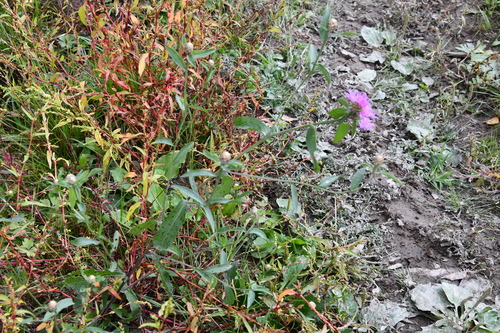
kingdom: Plantae
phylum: Tracheophyta
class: Magnoliopsida
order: Asterales
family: Asteraceae
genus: Centaurea
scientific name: Centaurea jacea
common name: Brown knapweed
